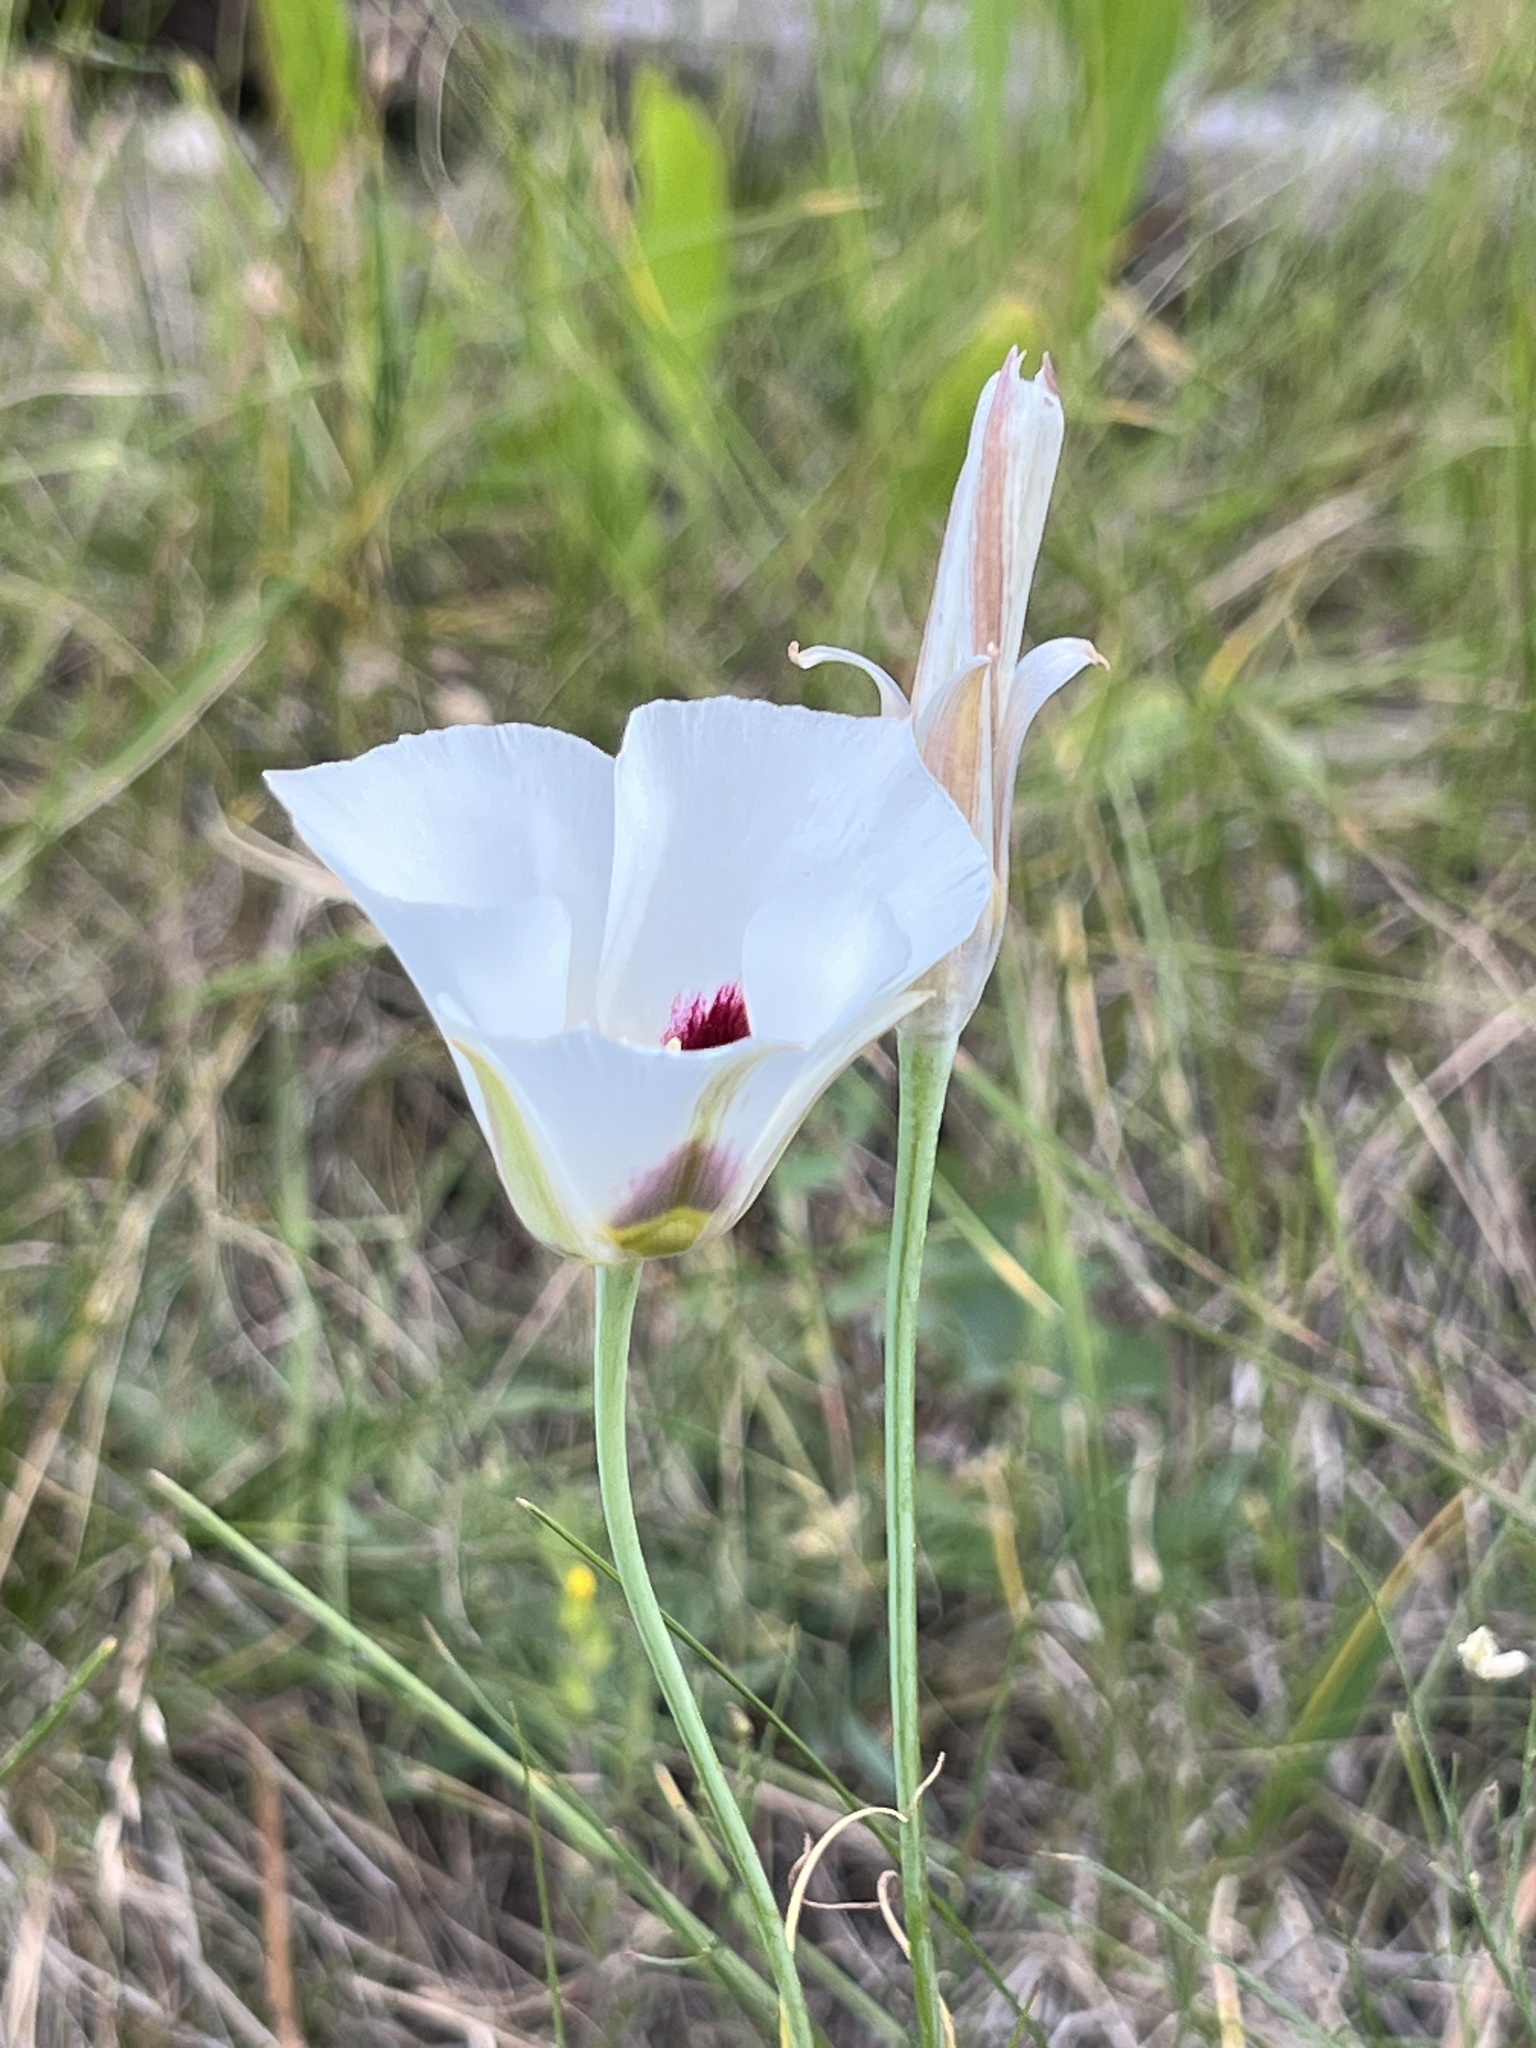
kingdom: Plantae
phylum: Tracheophyta
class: Liliopsida
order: Liliales
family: Liliaceae
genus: Calochortus
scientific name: Calochortus nuttallii
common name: Sego-lily
